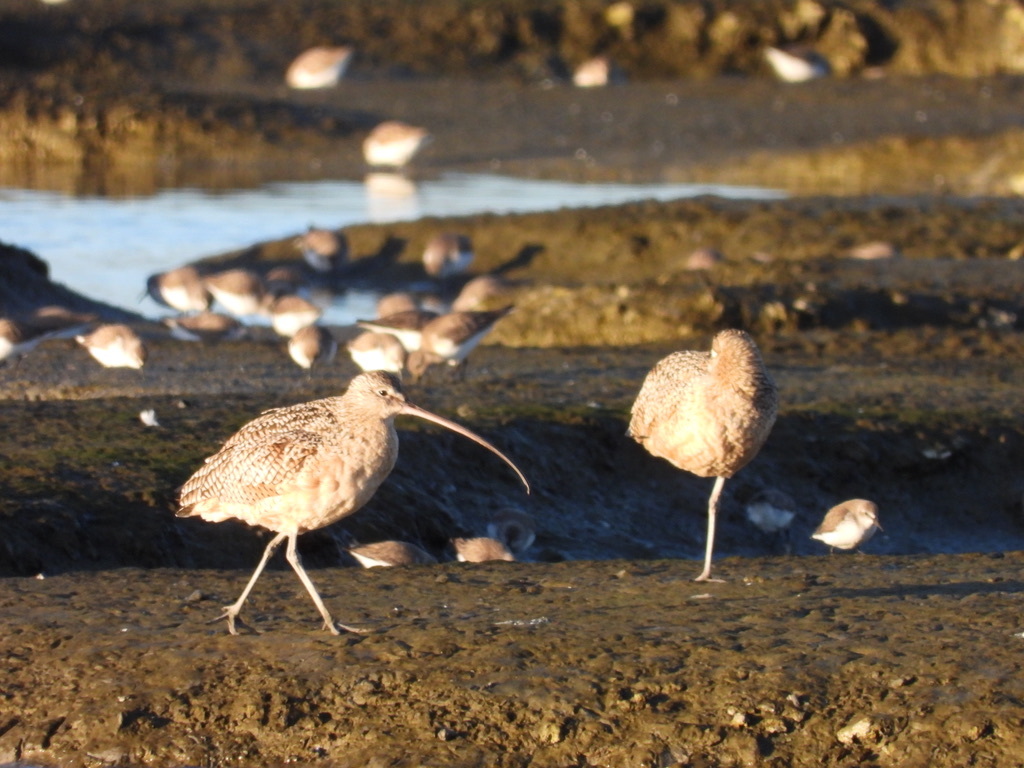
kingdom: Animalia
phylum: Chordata
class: Aves
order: Charadriiformes
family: Scolopacidae
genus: Numenius
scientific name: Numenius americanus
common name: Long-billed curlew
